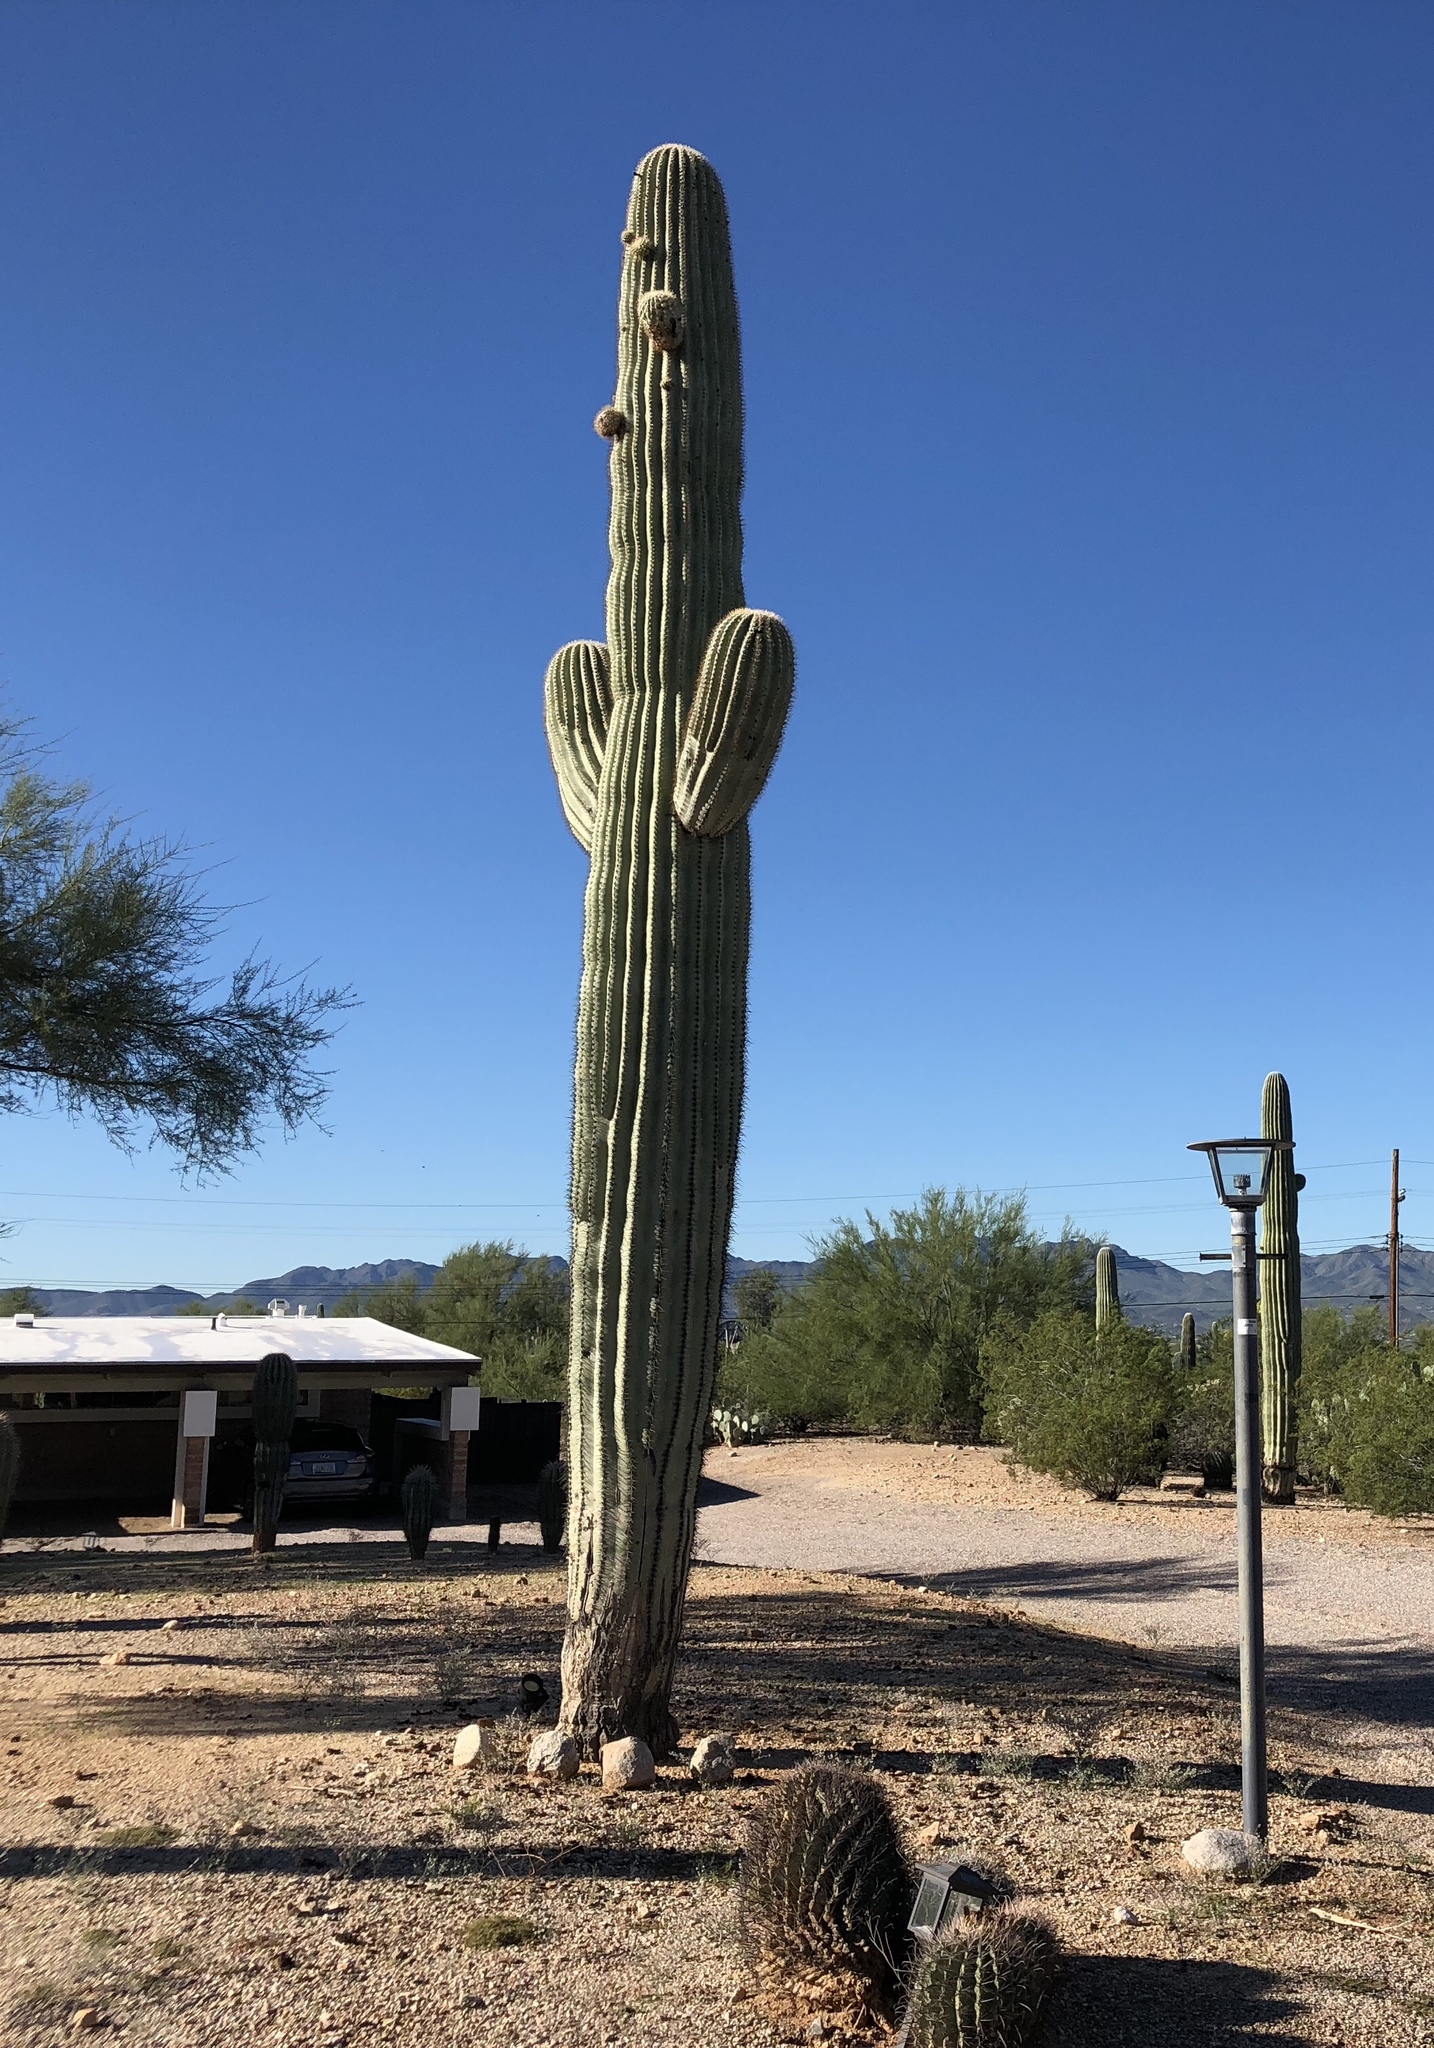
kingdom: Plantae
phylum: Tracheophyta
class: Magnoliopsida
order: Caryophyllales
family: Cactaceae
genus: Carnegiea
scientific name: Carnegiea gigantea
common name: Saguaro
